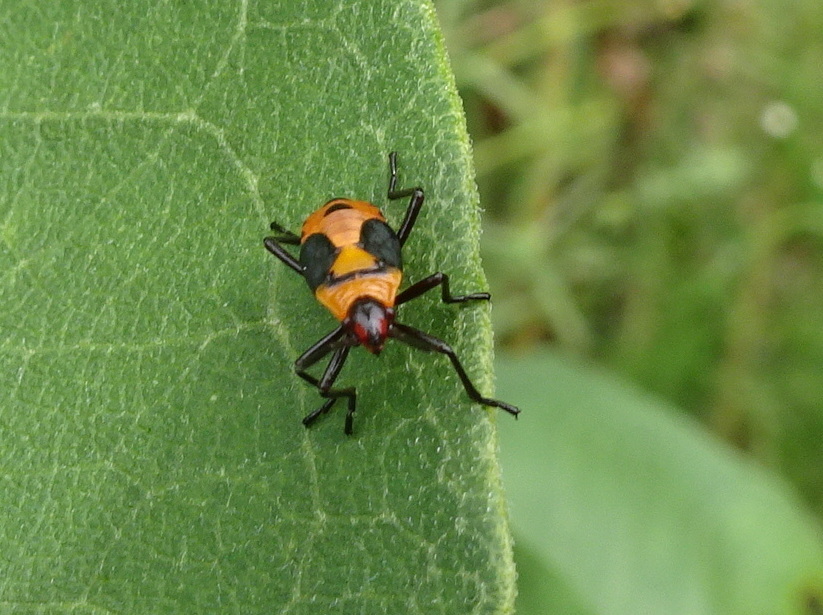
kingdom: Animalia
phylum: Arthropoda
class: Insecta
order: Hemiptera
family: Lygaeidae
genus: Oncopeltus
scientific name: Oncopeltus fasciatus
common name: Large milkweed bug
